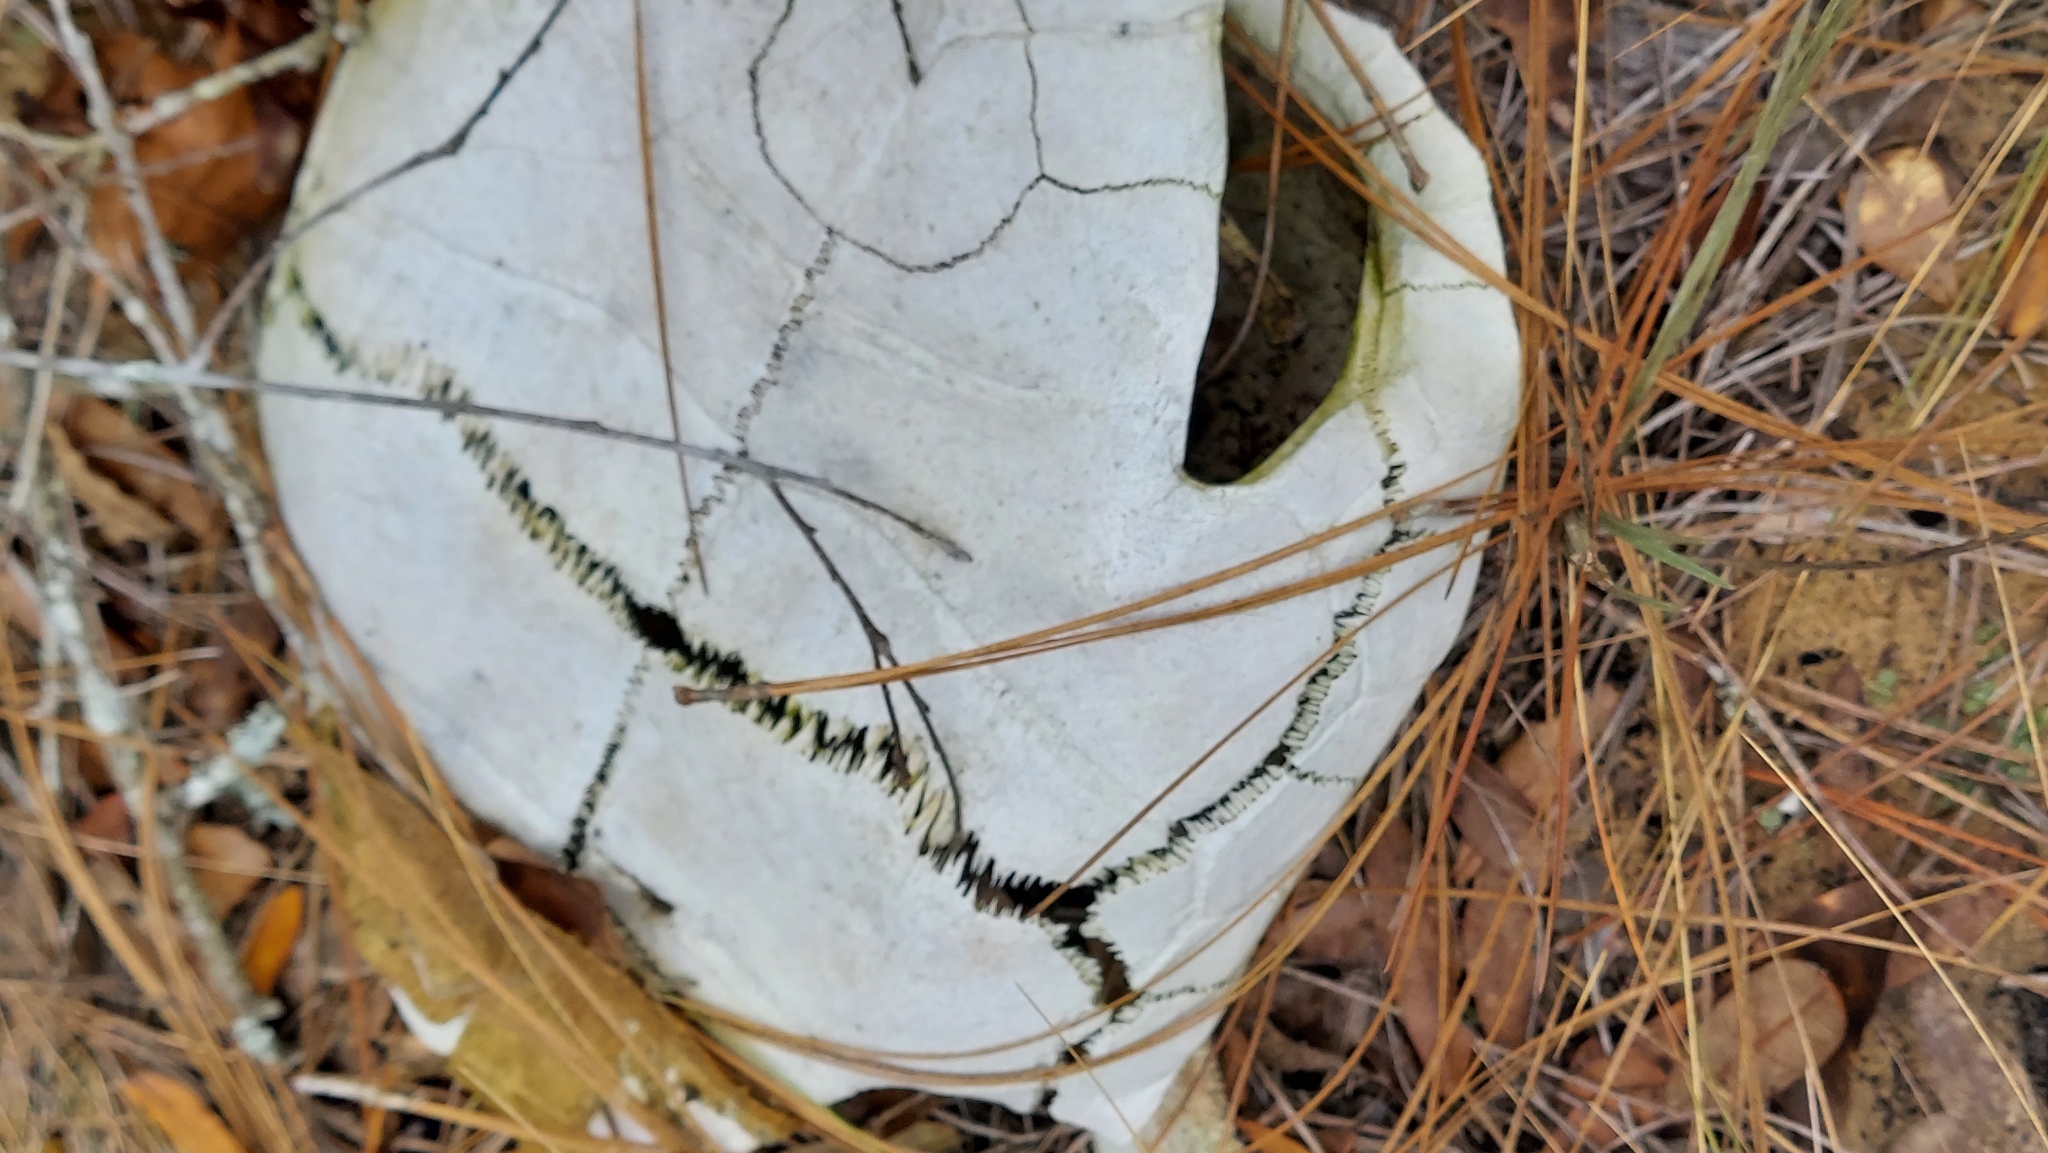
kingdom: Animalia
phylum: Chordata
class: Testudines
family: Testudinidae
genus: Gopherus
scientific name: Gopherus polyphemus
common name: Florida gopher tortoise
